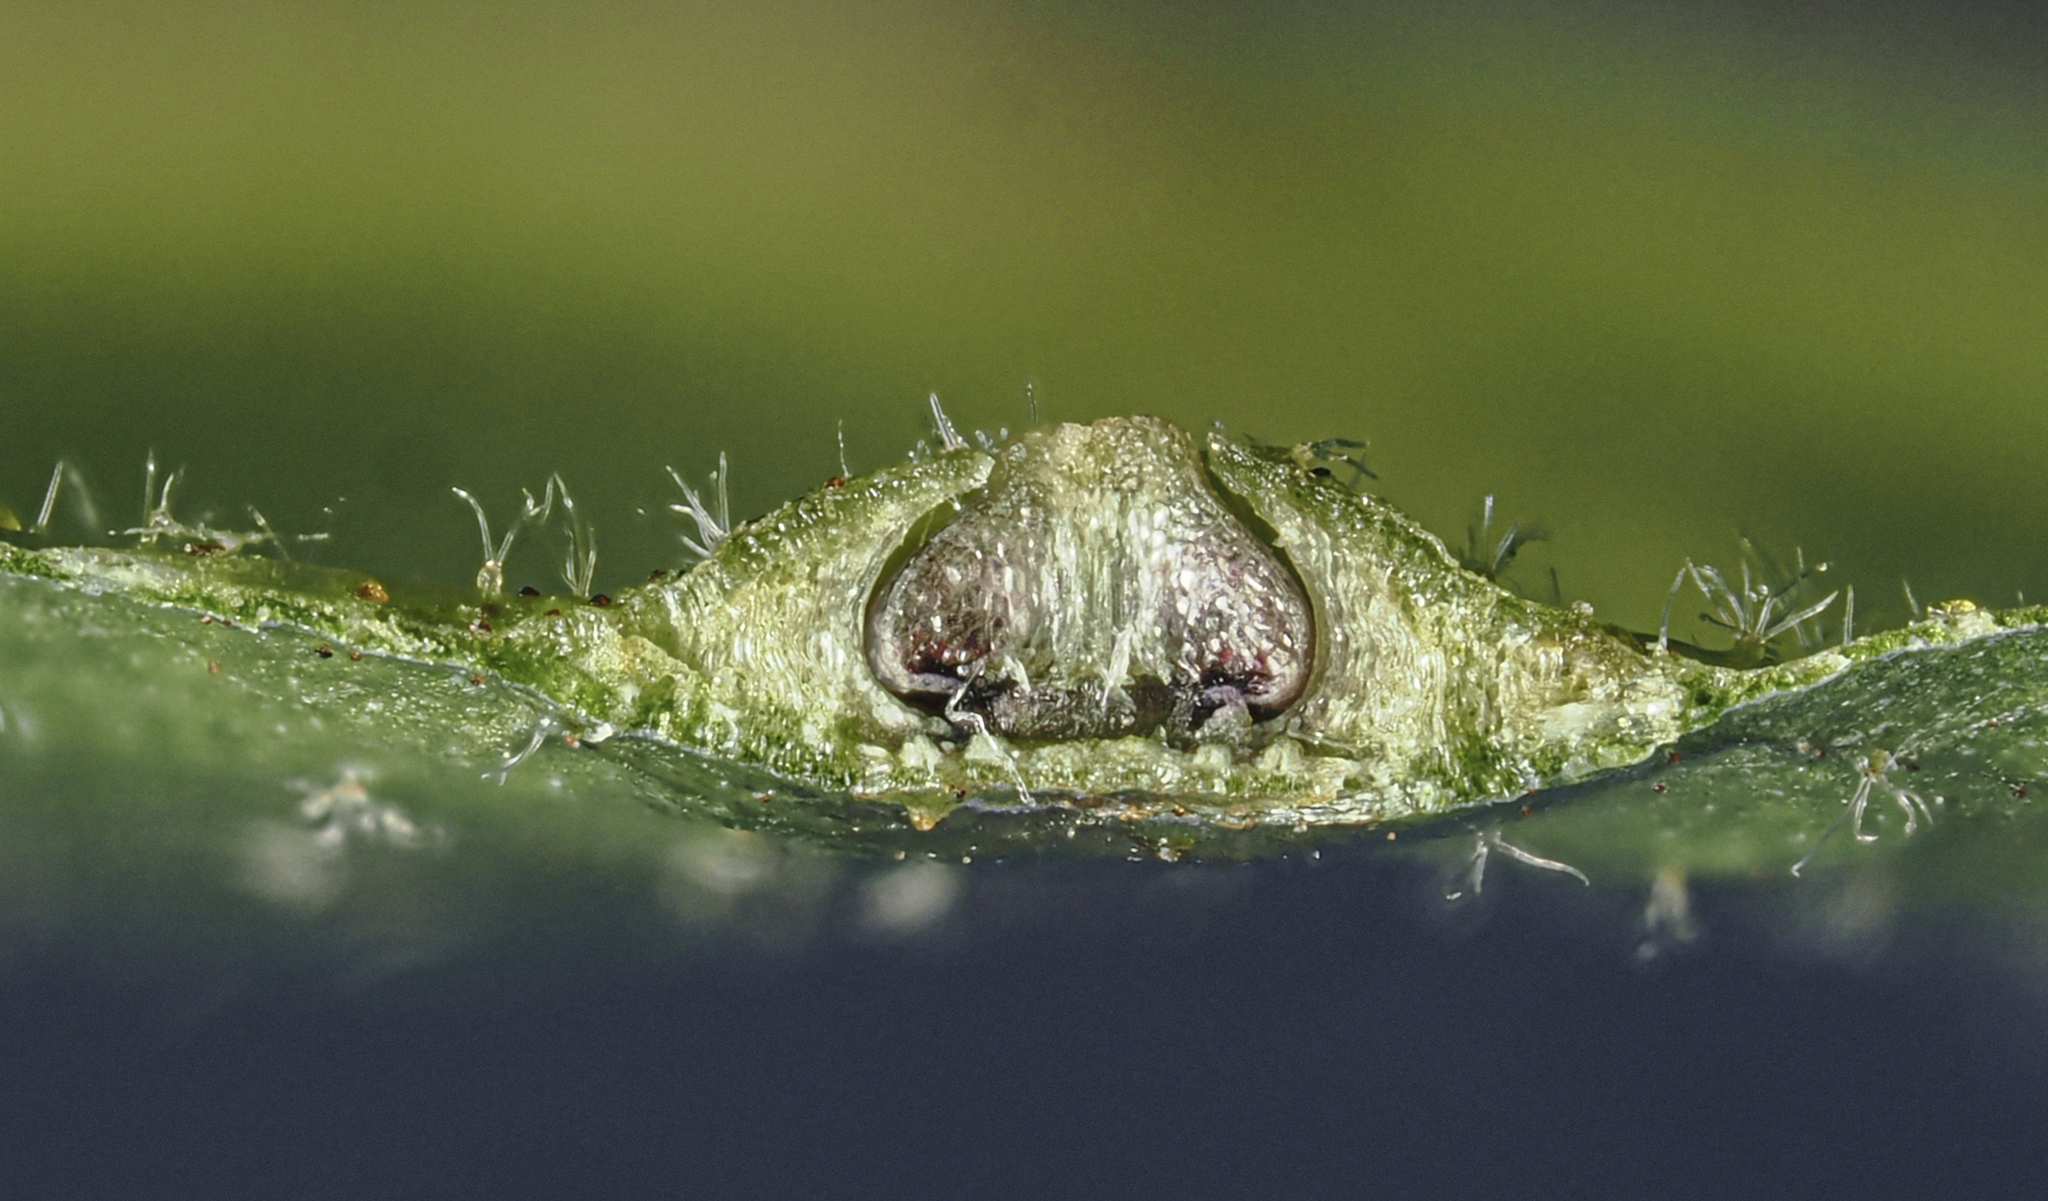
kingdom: Animalia
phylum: Arthropoda
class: Insecta
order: Diptera
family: Cecidomyiidae
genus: Caryadiplosis
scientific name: Caryadiplosis biconvexa
